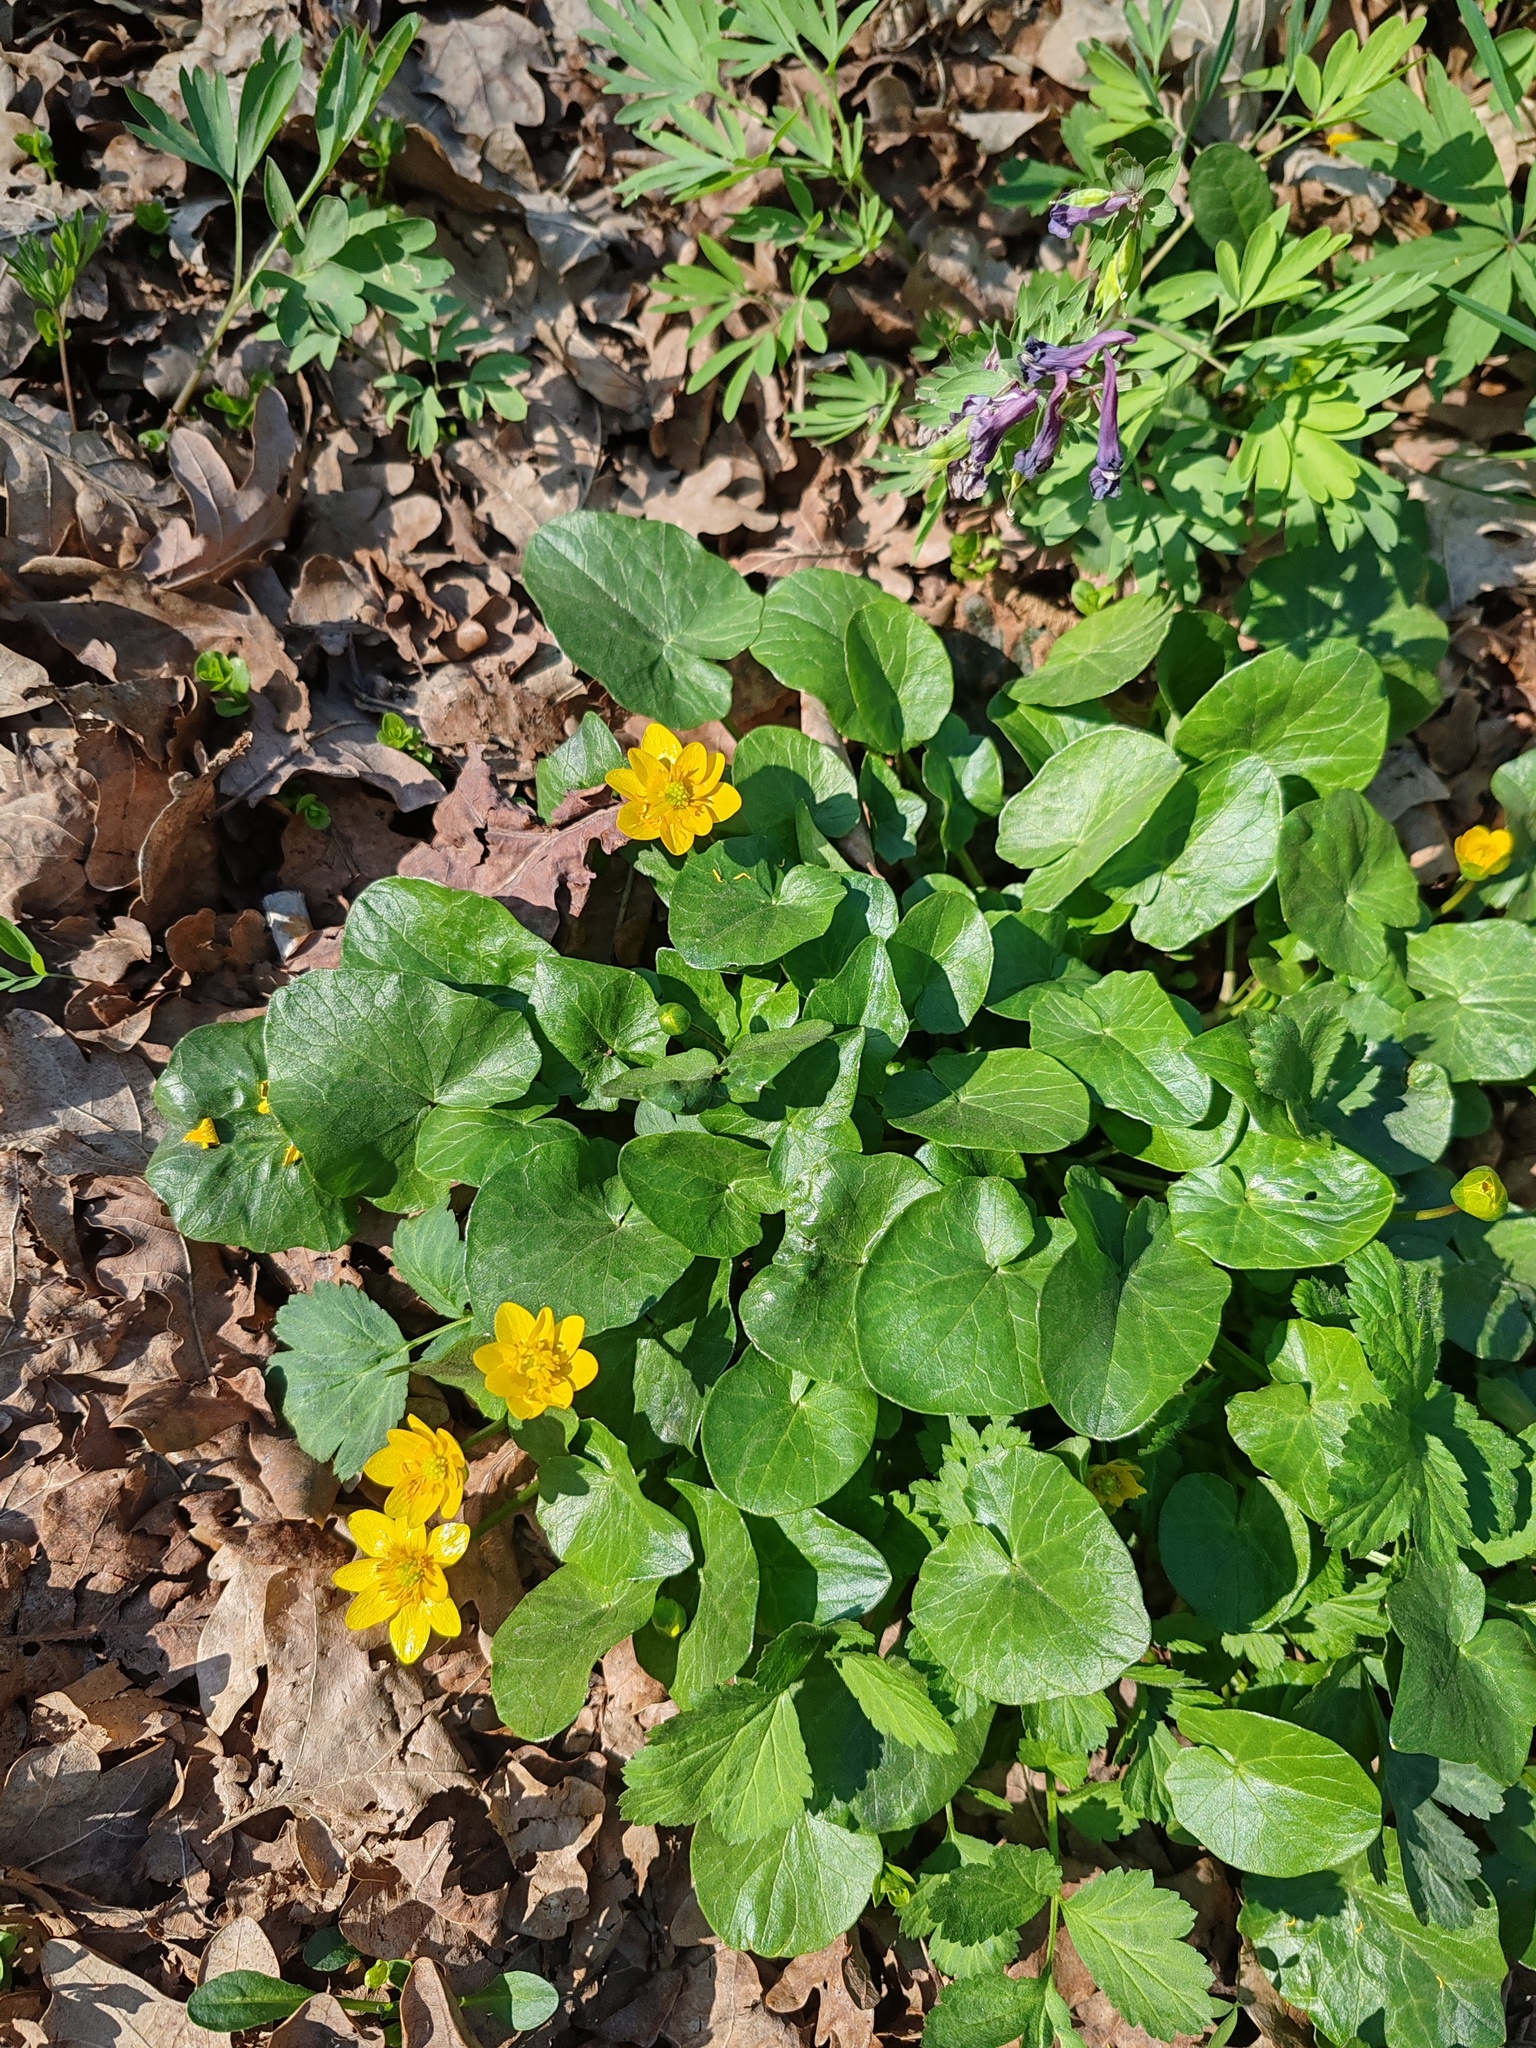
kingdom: Plantae
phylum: Tracheophyta
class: Magnoliopsida
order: Ranunculales
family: Ranunculaceae
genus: Ficaria
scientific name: Ficaria verna
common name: Lesser celandine
